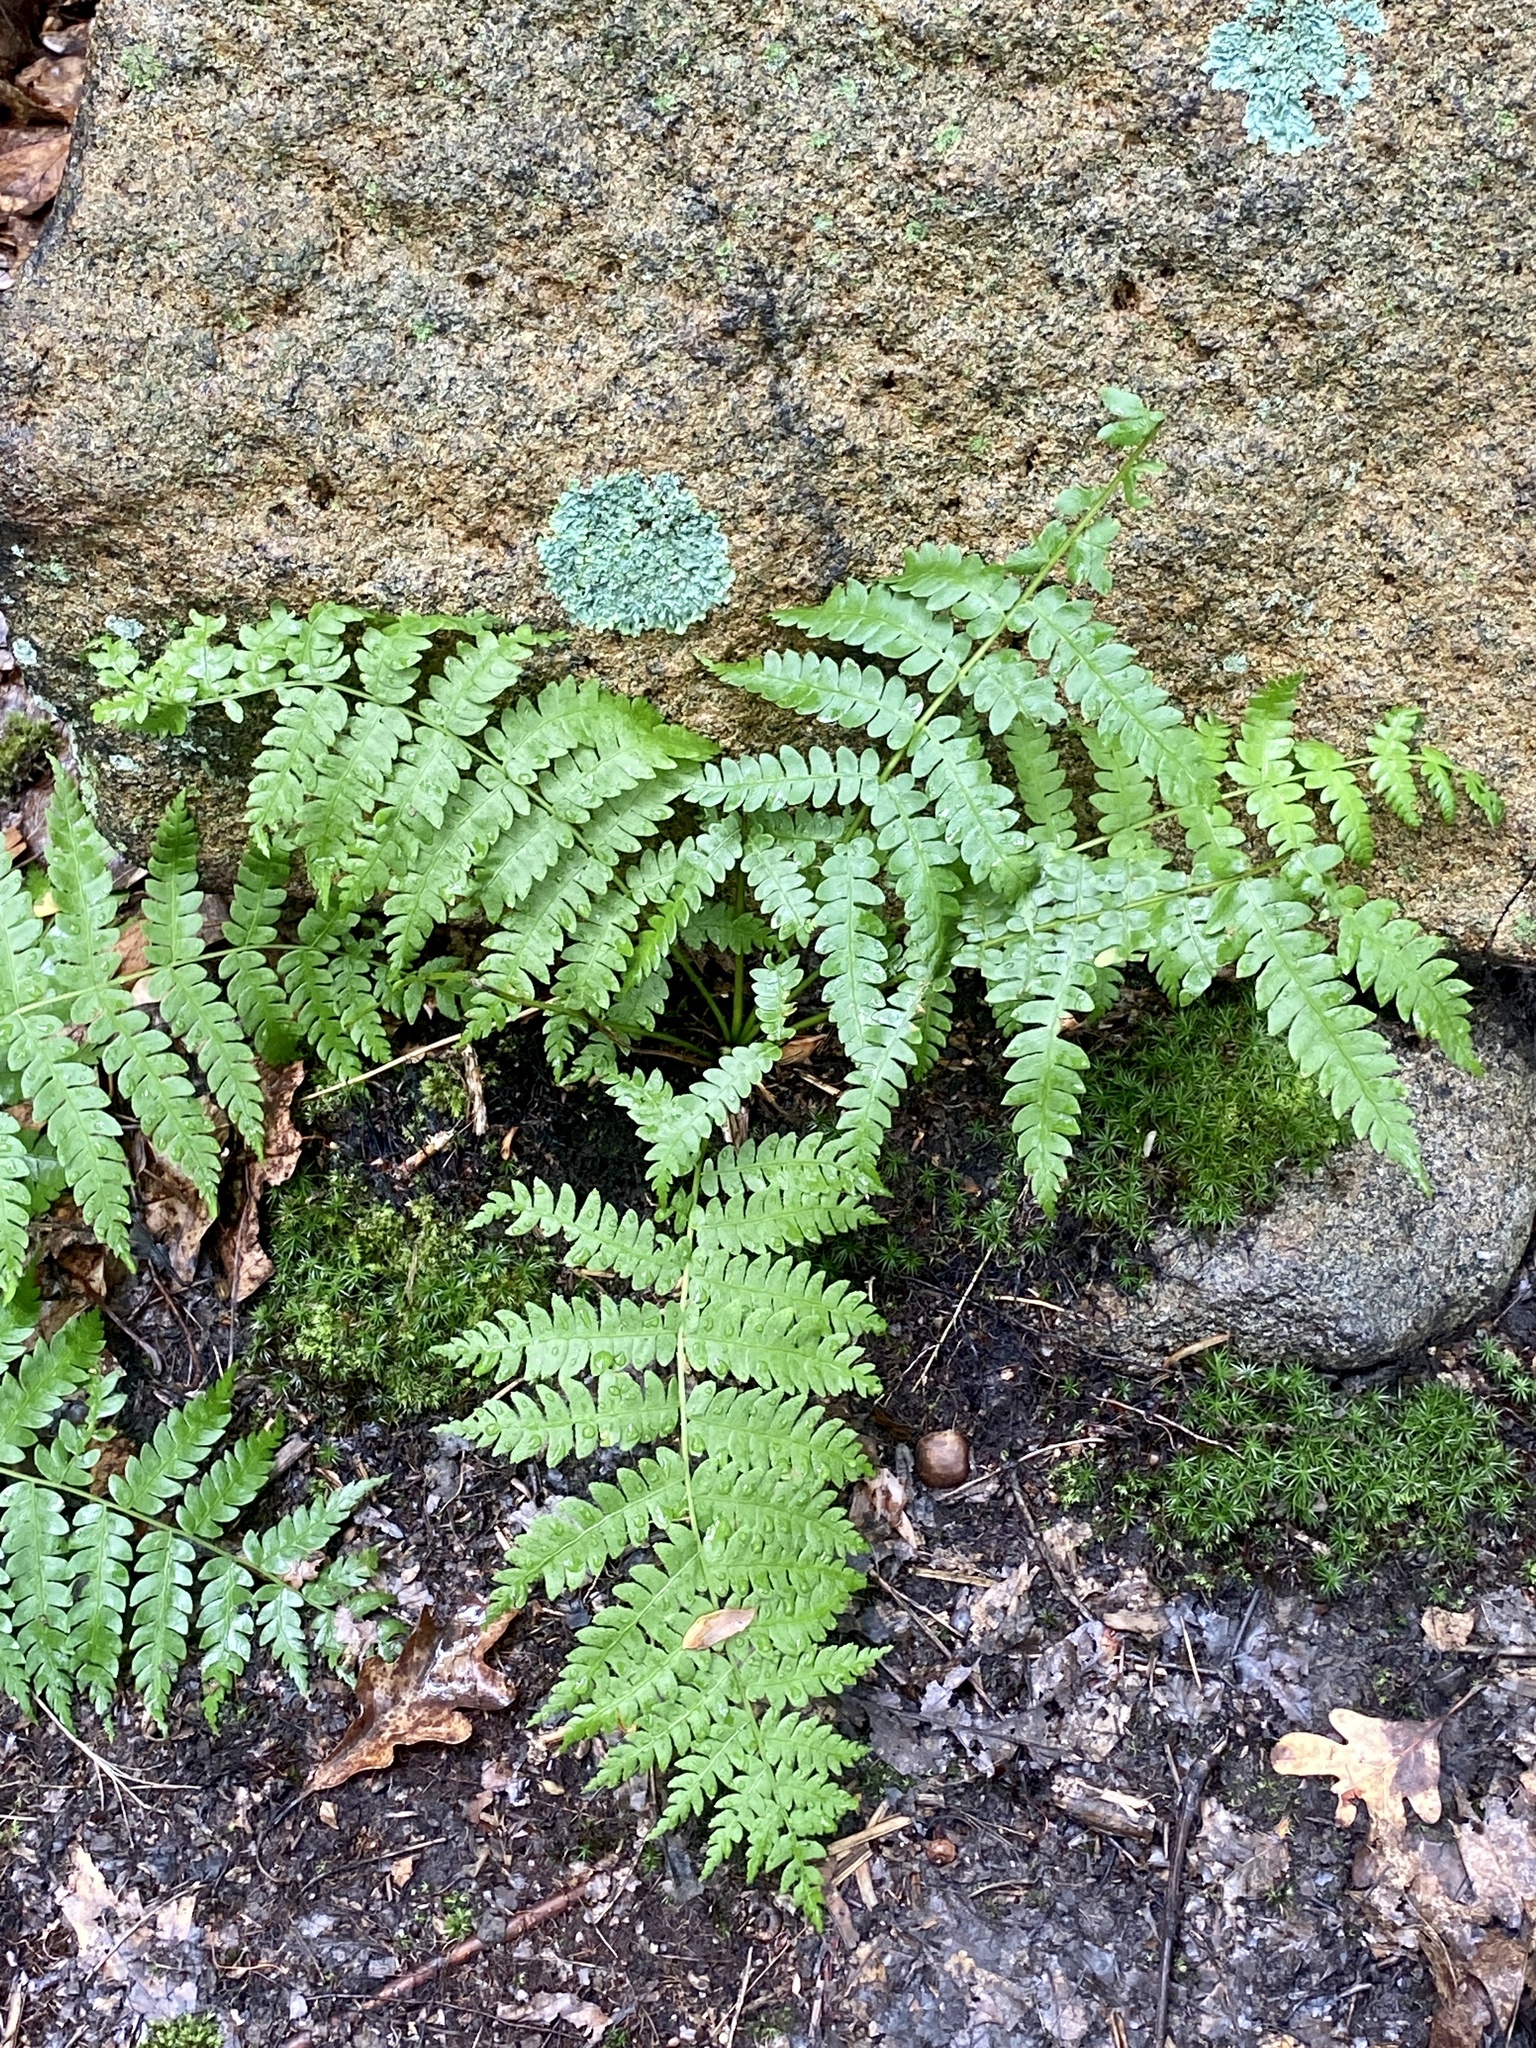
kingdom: Plantae
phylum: Tracheophyta
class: Polypodiopsida
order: Osmundales
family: Osmundaceae
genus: Osmundastrum
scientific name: Osmundastrum cinnamomeum
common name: Cinnamon fern
